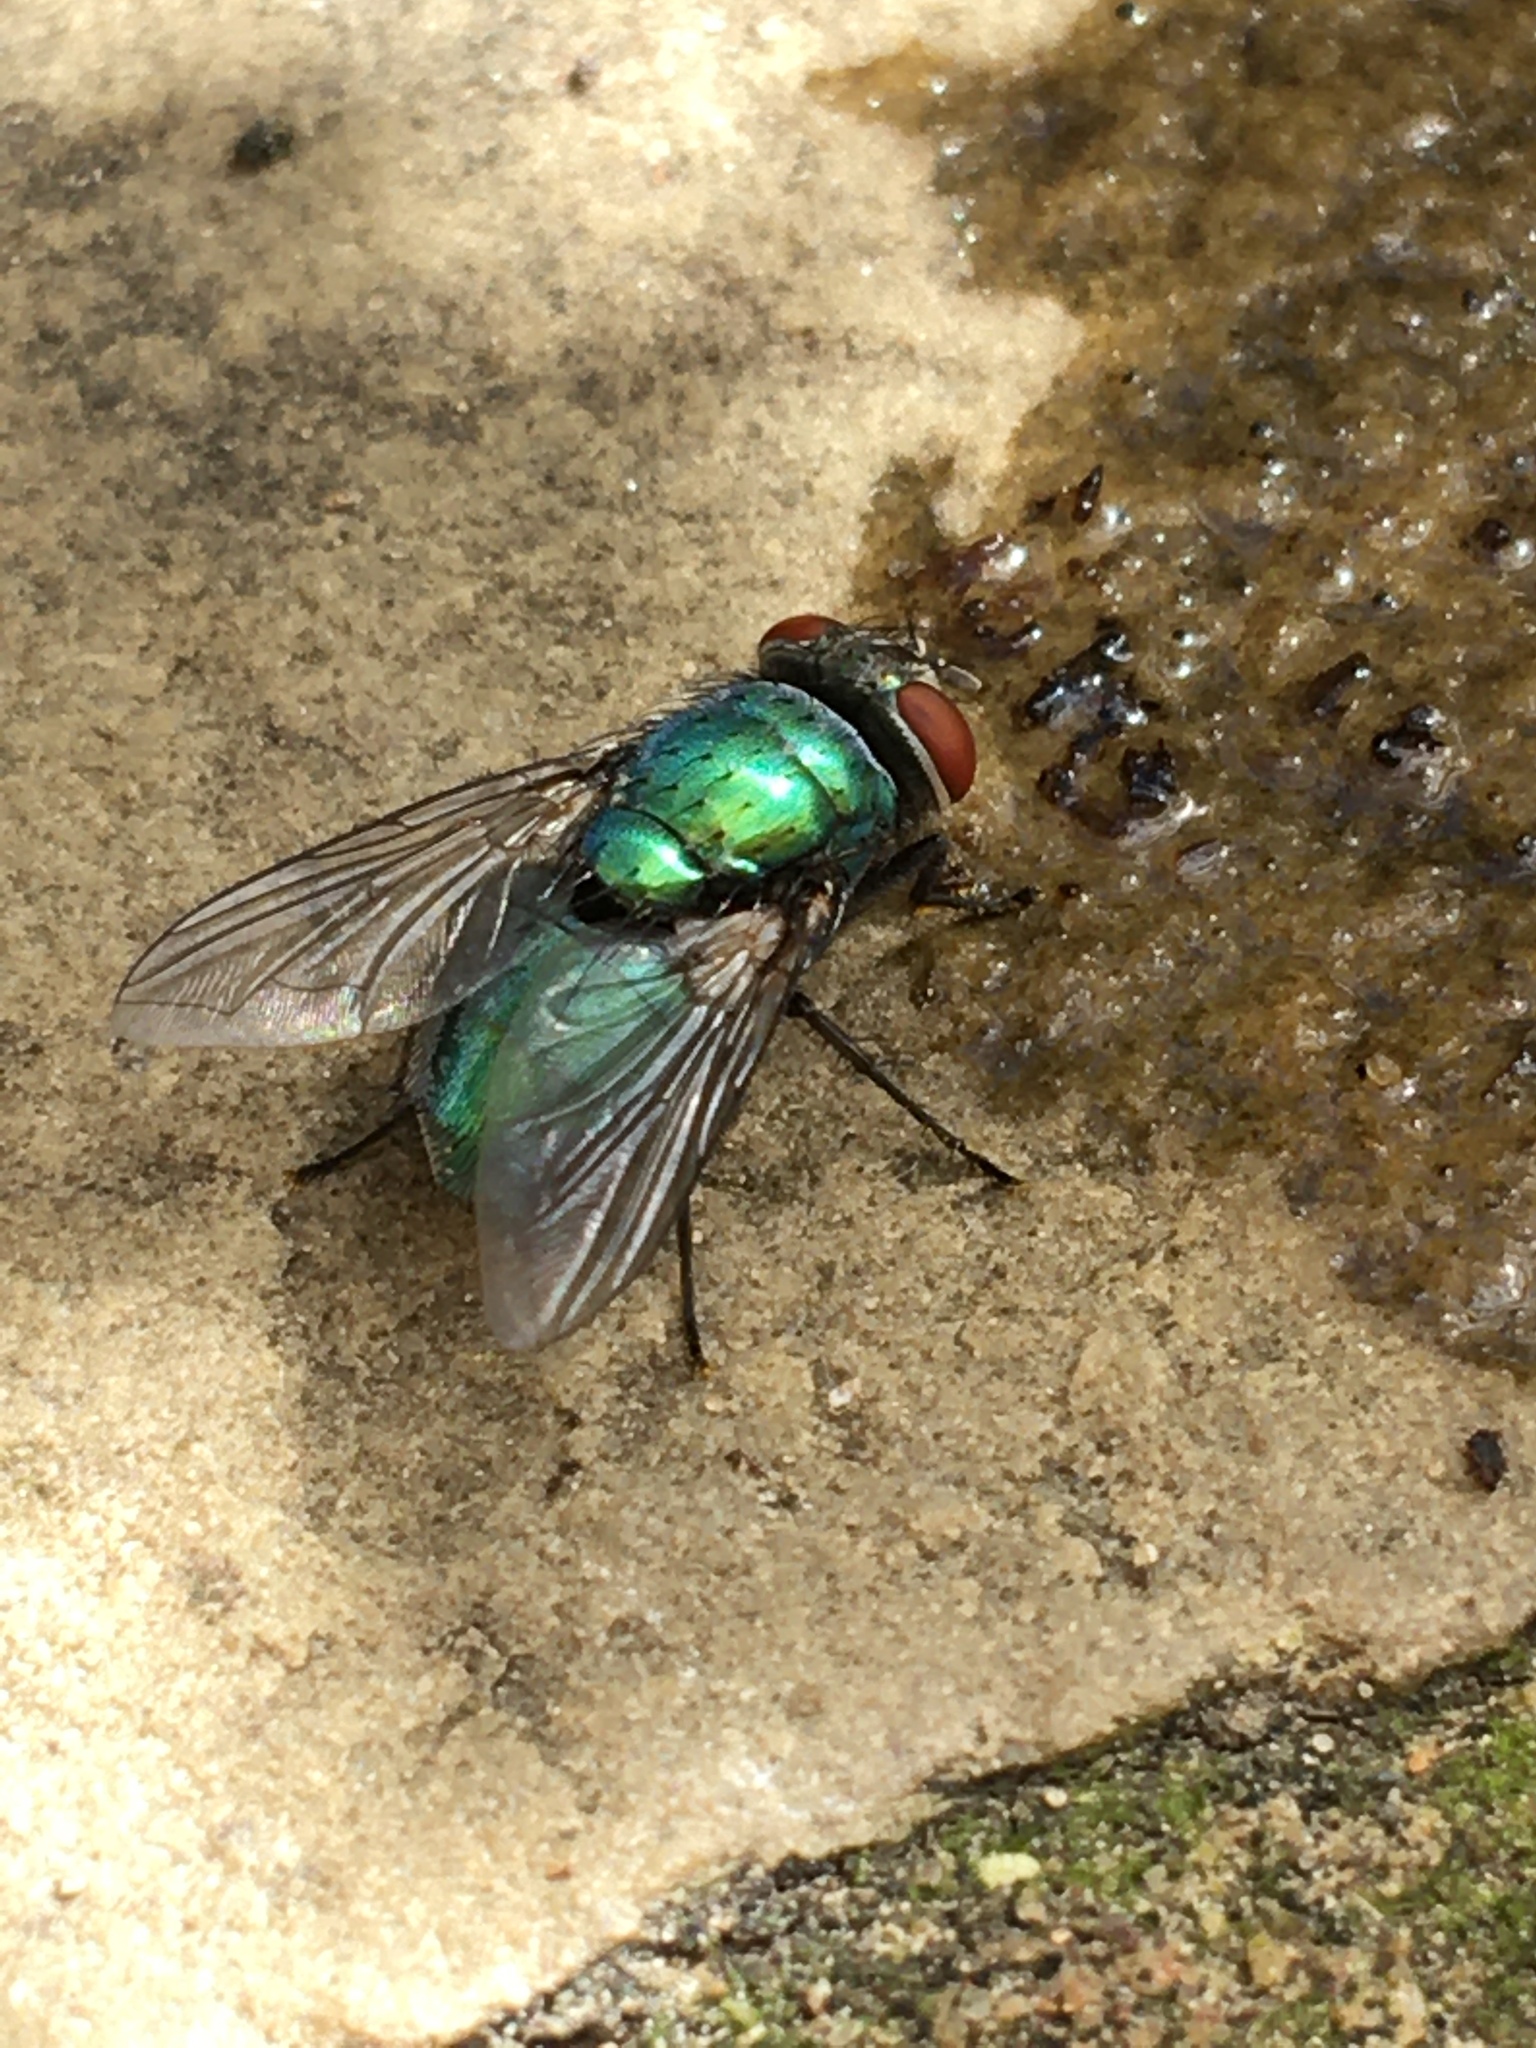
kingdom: Animalia
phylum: Arthropoda
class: Insecta
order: Diptera
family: Calliphoridae
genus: Lucilia
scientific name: Lucilia
